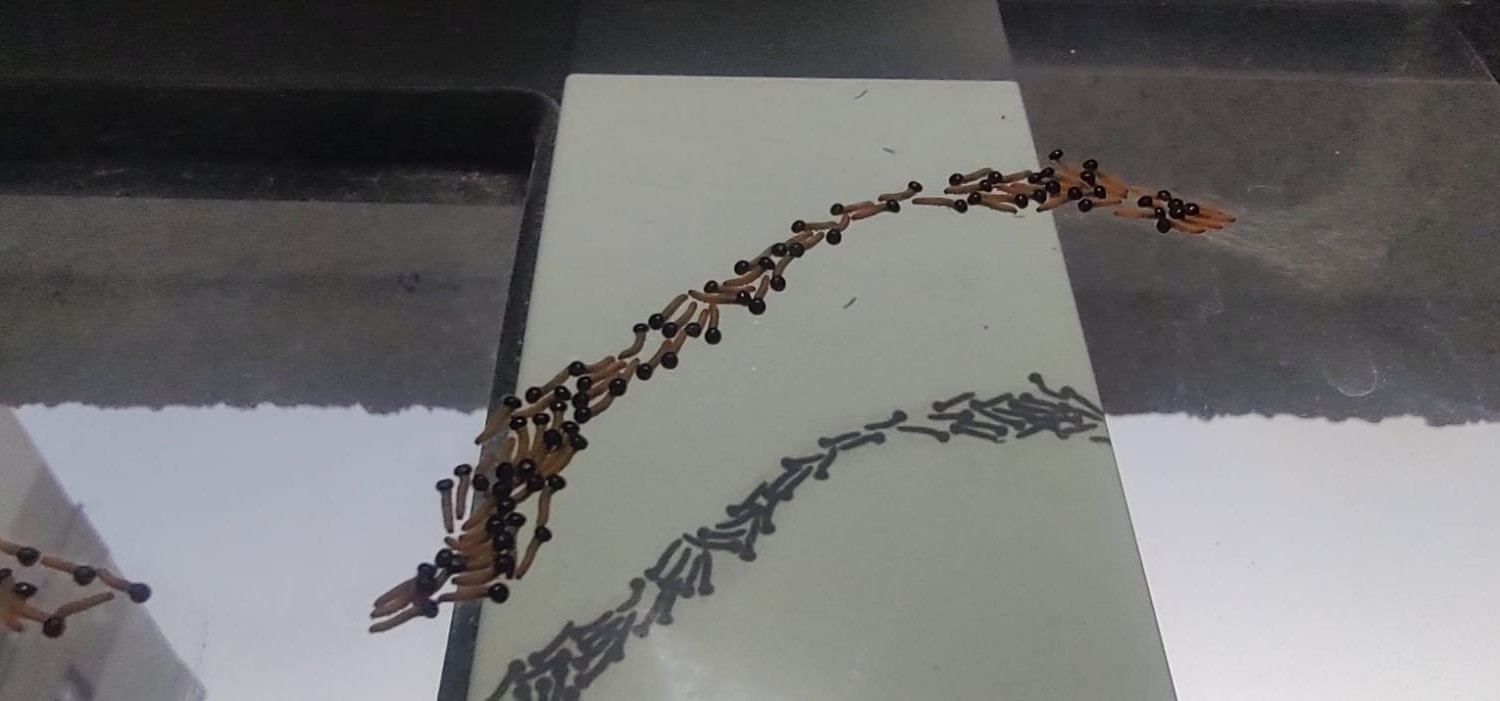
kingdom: Animalia
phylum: Arthropoda
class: Insecta
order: Lepidoptera
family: Nymphalidae
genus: Brassolis
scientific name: Brassolis sophorae
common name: Coconut caterpillar
